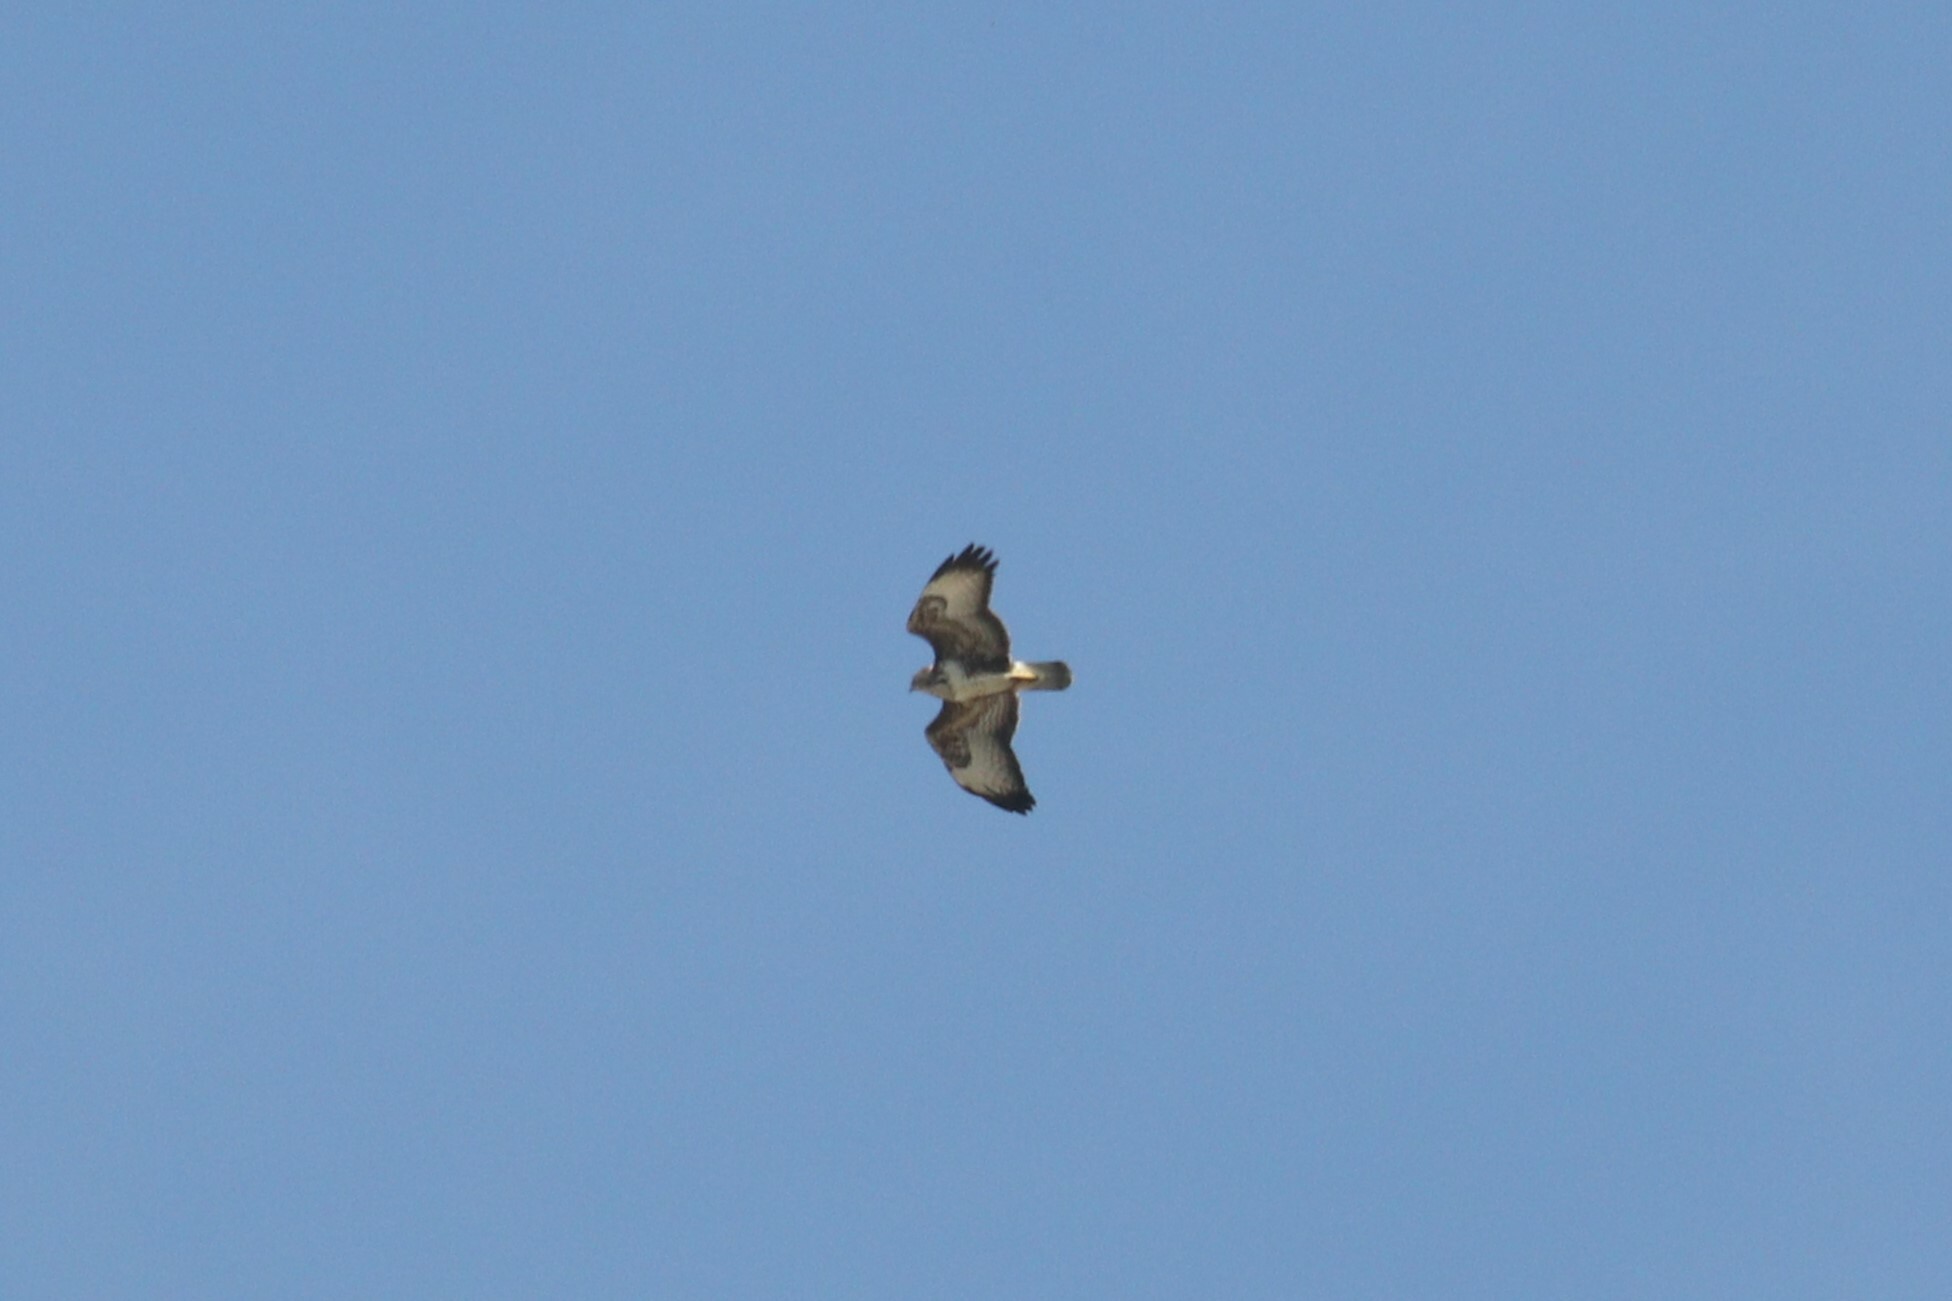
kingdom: Animalia
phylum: Chordata
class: Aves
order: Accipitriformes
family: Accipitridae
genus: Buteo
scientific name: Buteo buteo
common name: Common buzzard
